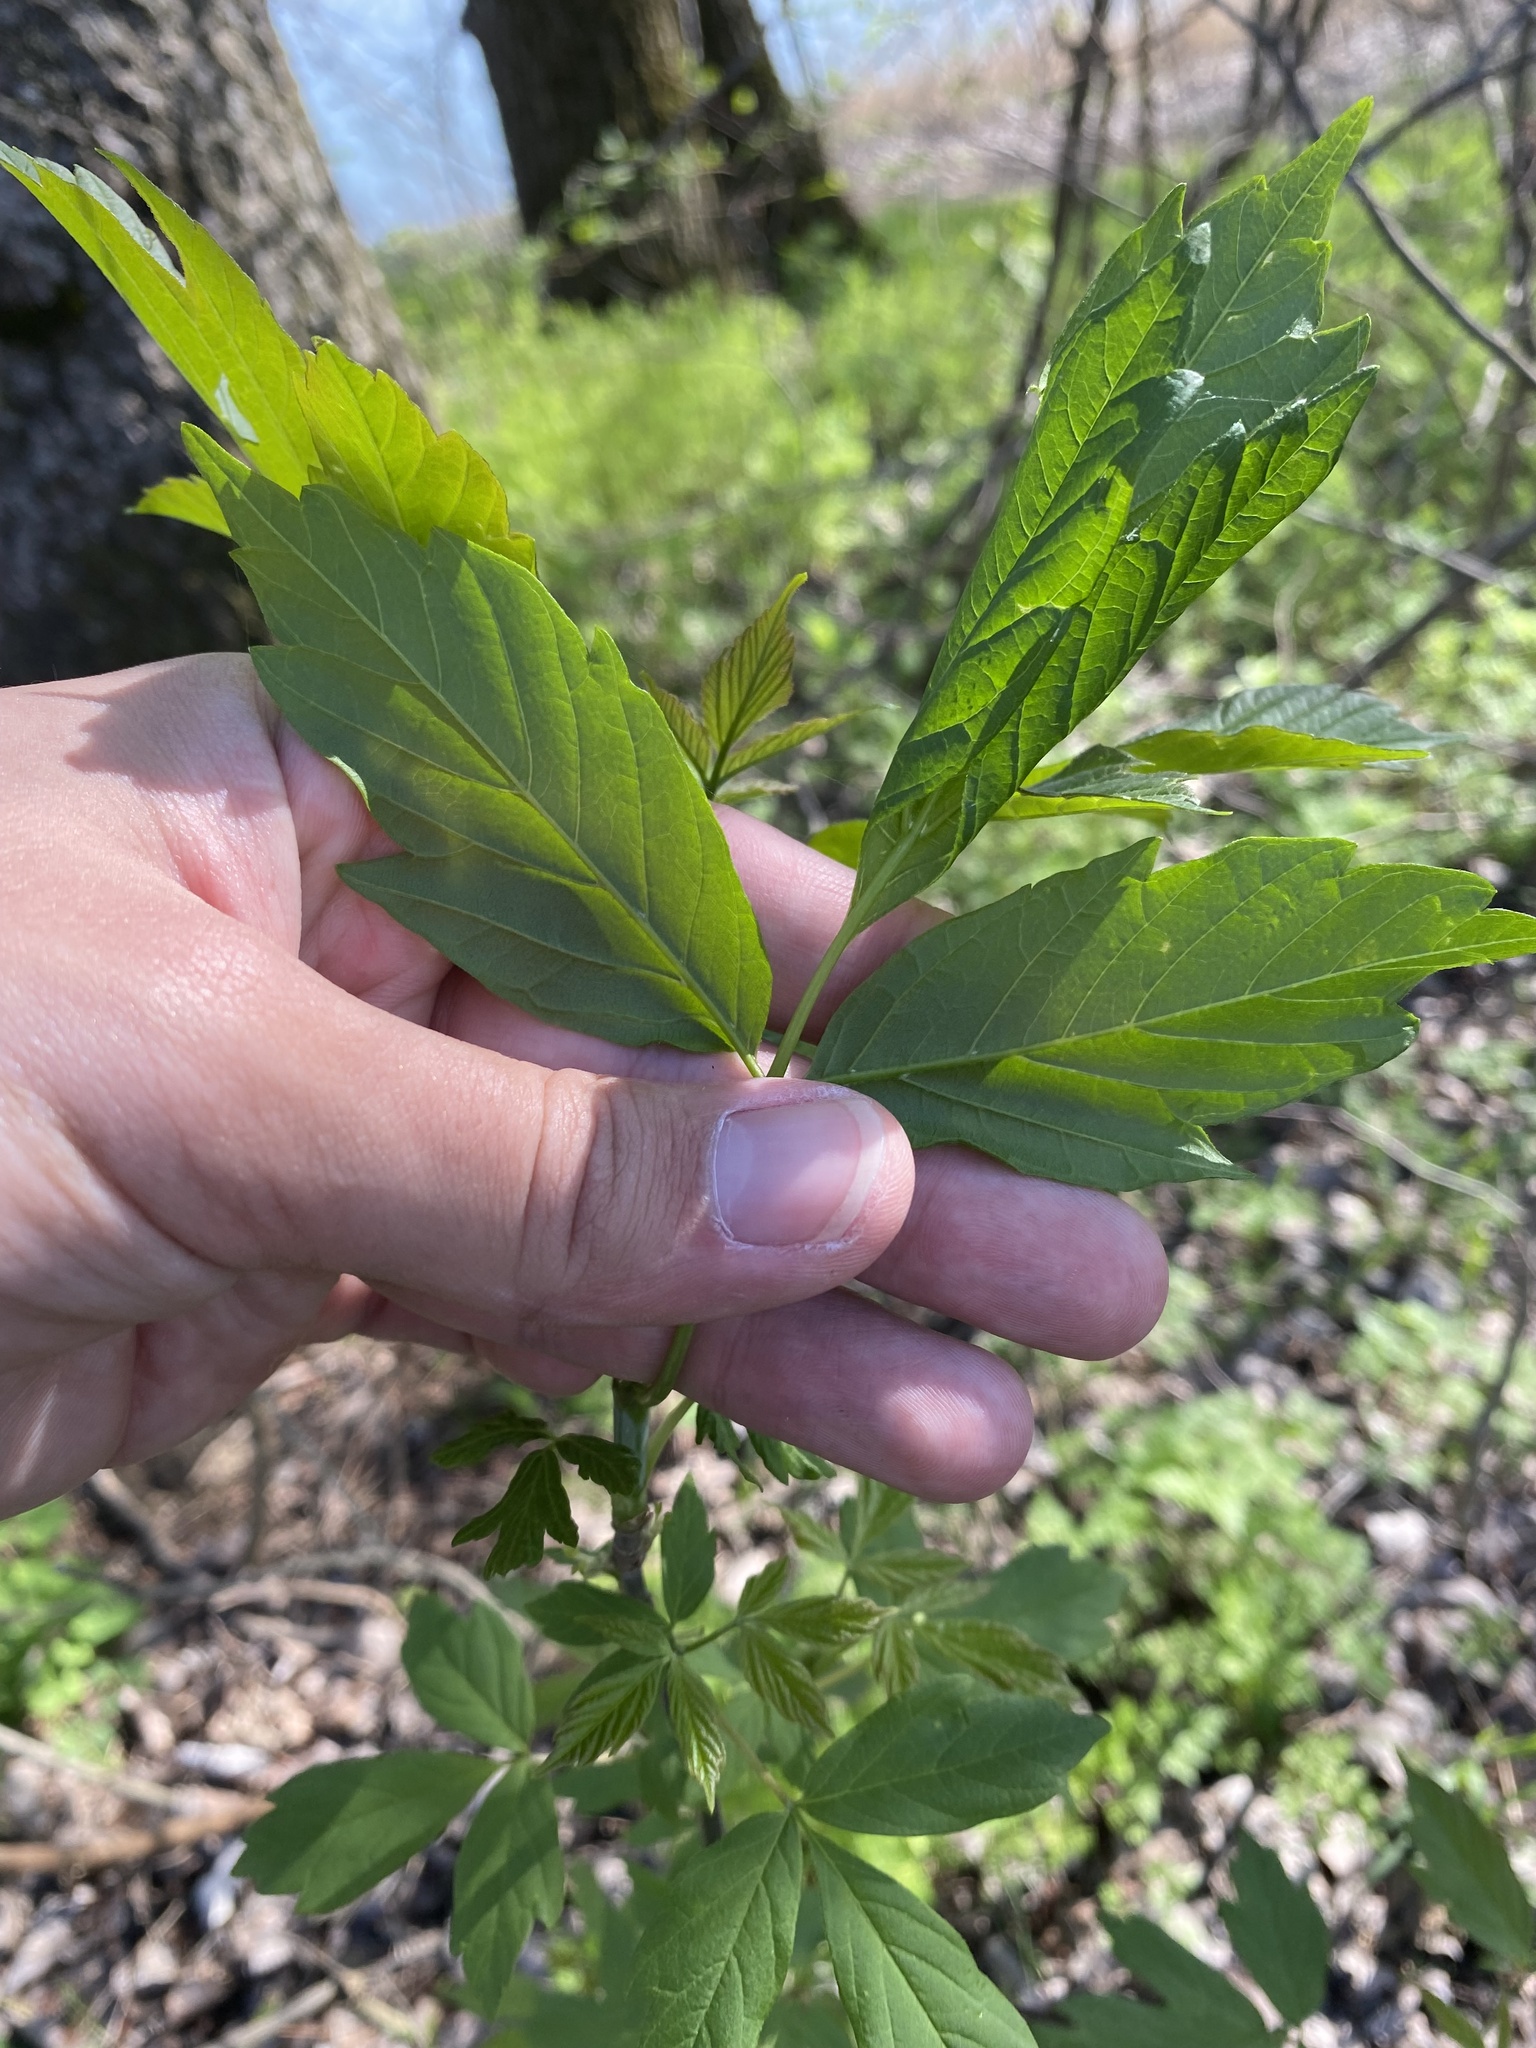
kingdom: Plantae
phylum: Tracheophyta
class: Magnoliopsida
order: Sapindales
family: Sapindaceae
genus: Acer
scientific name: Acer negundo
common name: Ashleaf maple
